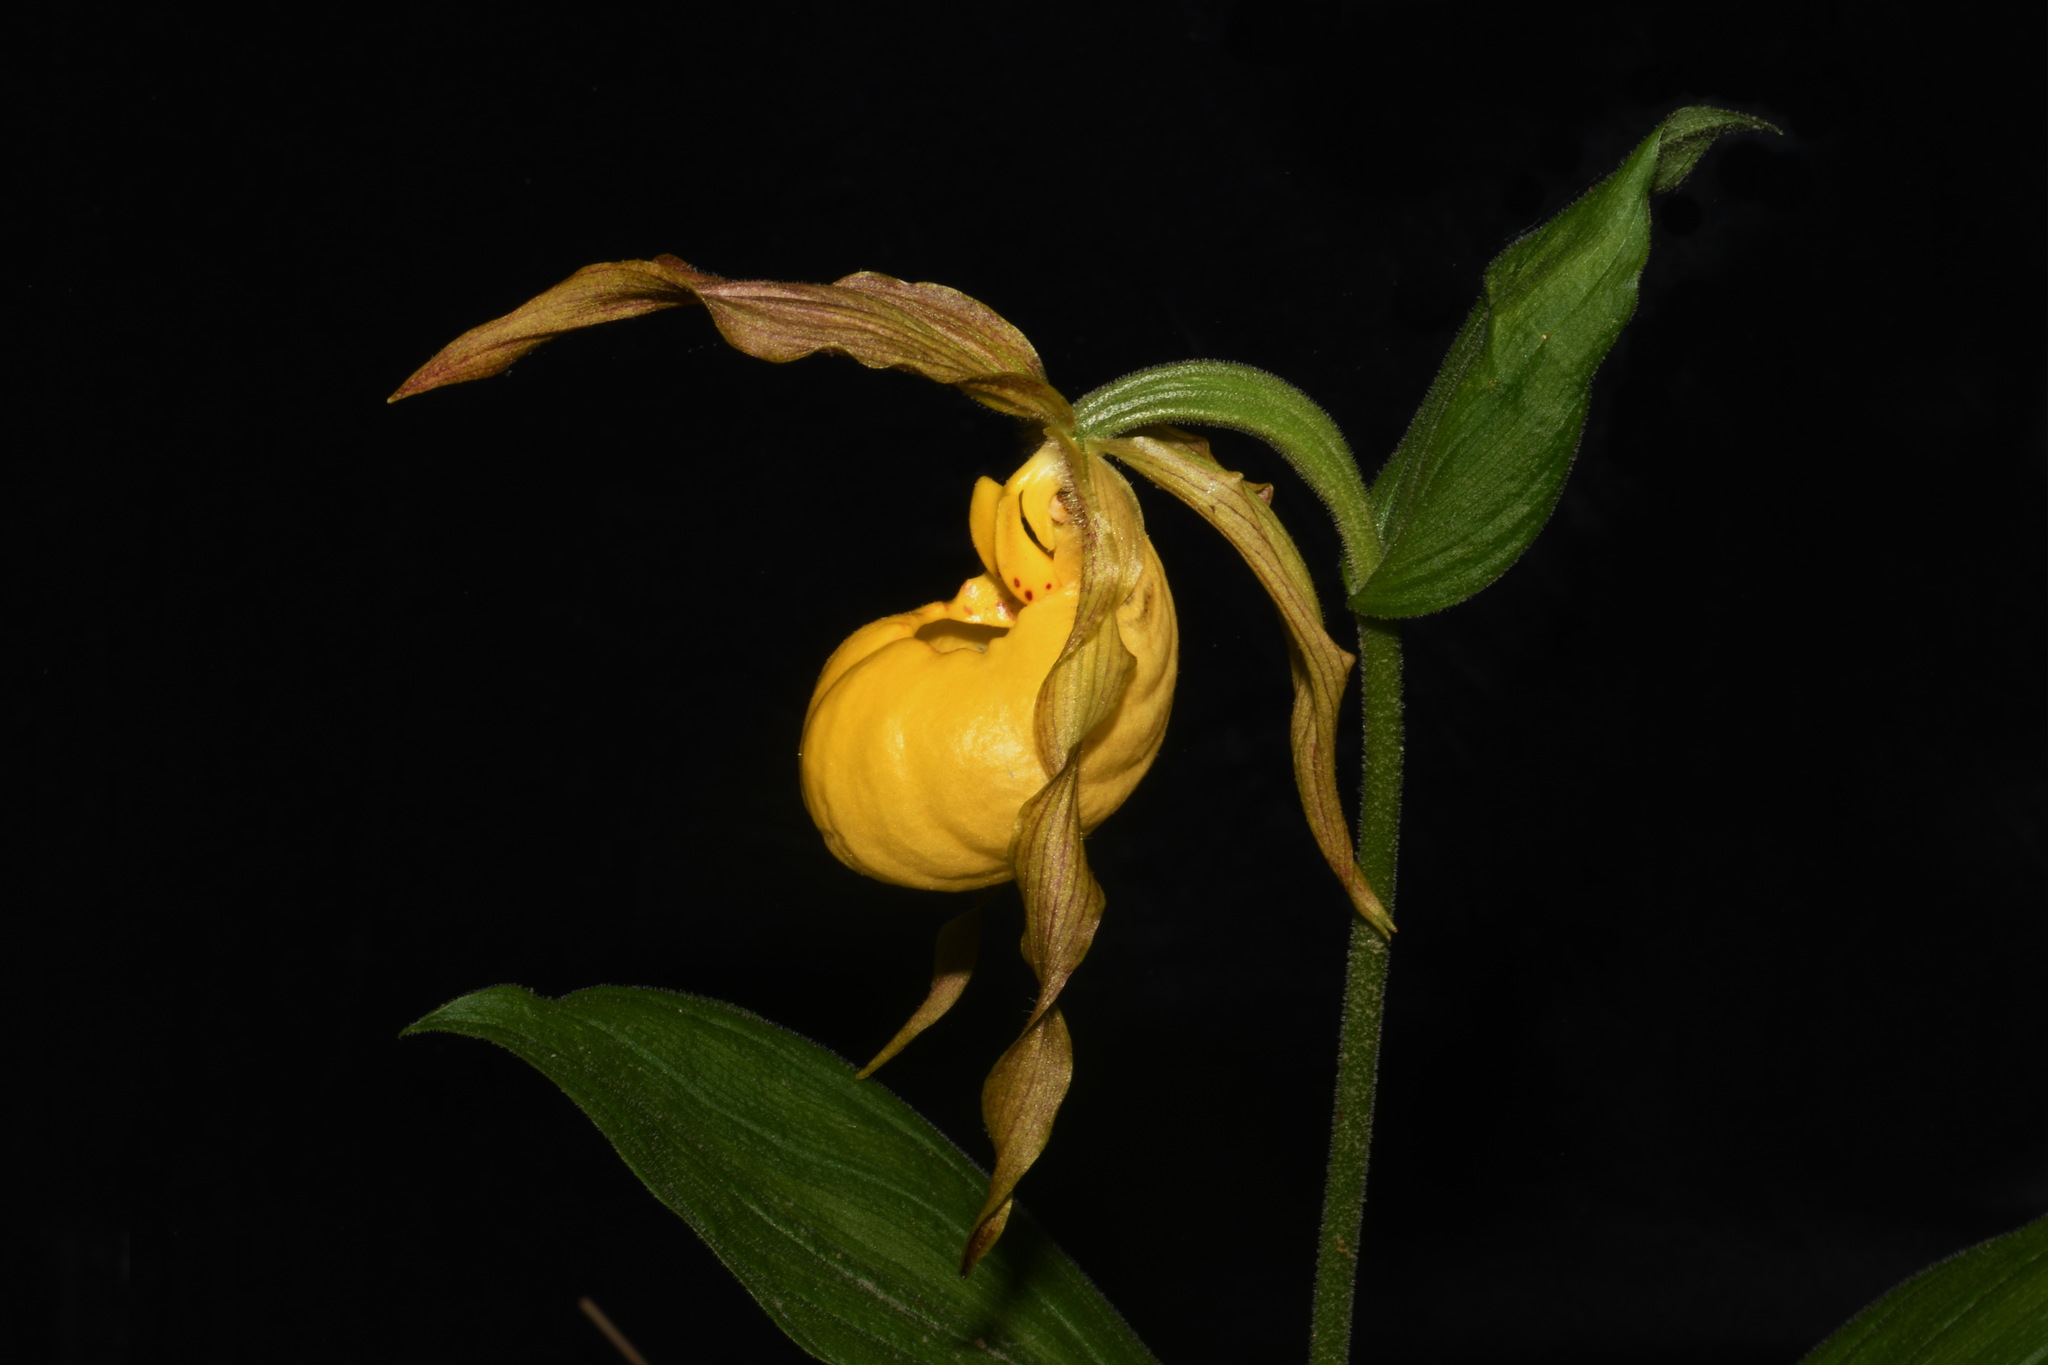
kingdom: Plantae
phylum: Tracheophyta
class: Liliopsida
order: Asparagales
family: Orchidaceae
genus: Cypripedium
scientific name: Cypripedium parviflorum
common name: American yellow lady's-slipper
